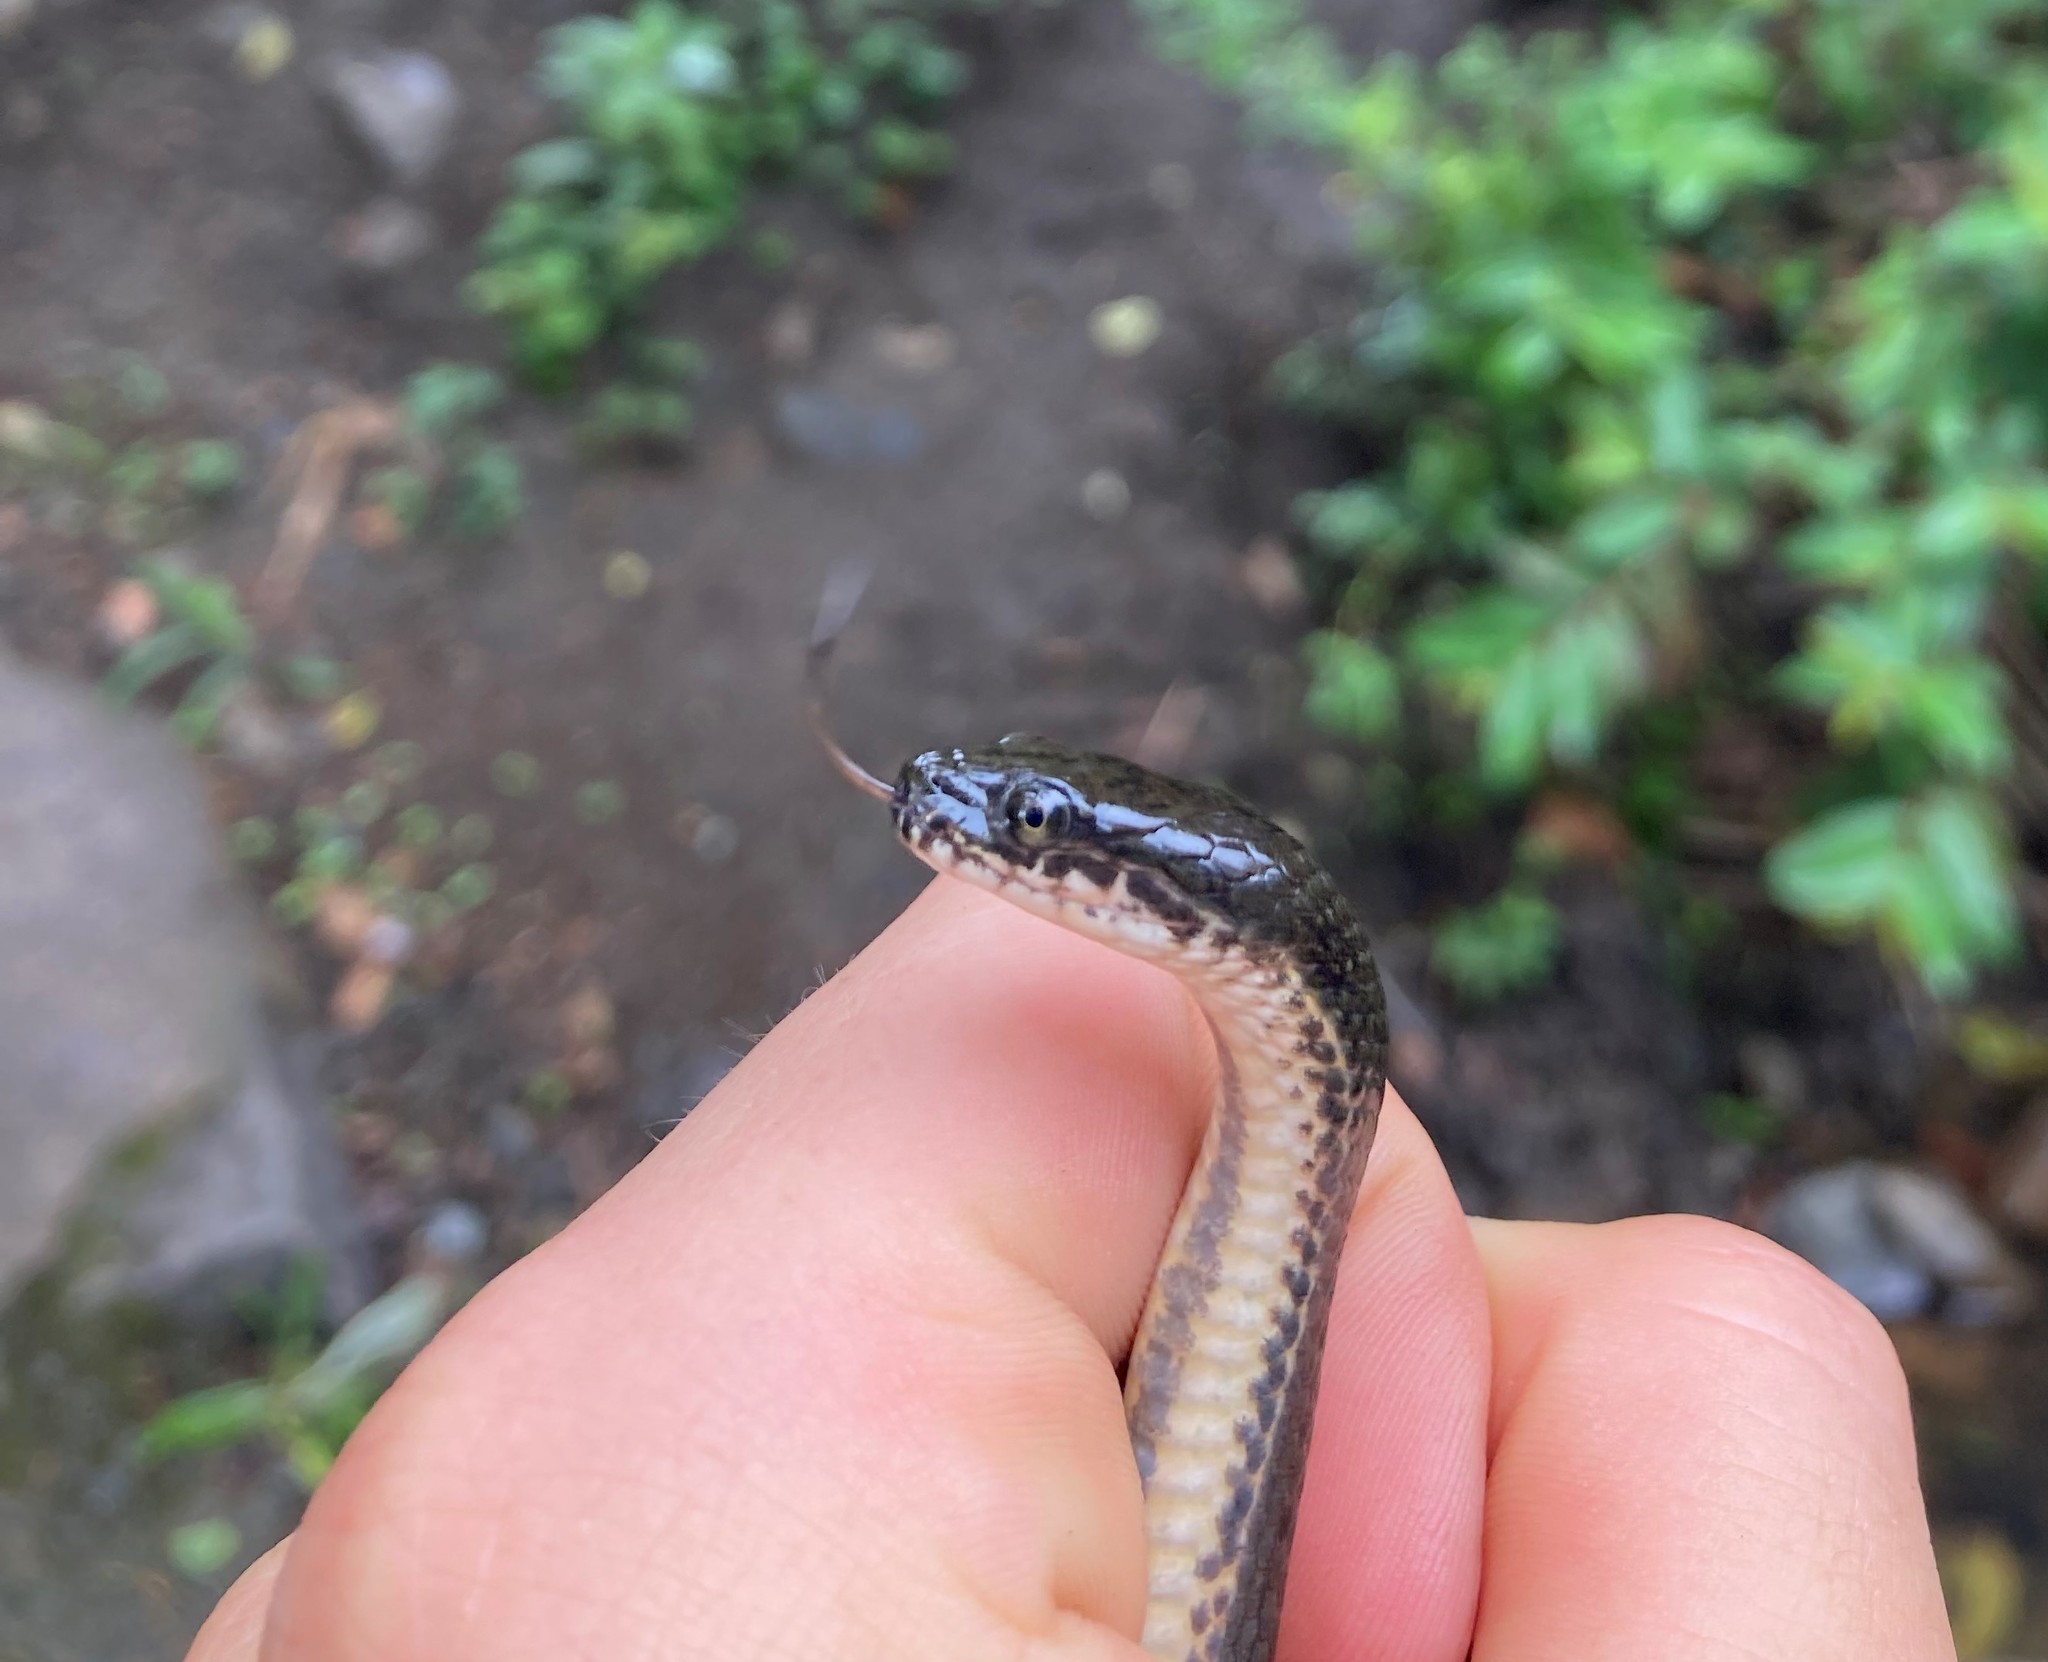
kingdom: Animalia
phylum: Chordata
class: Squamata
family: Lamprophiidae
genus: Lycodonomorphus
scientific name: Lycodonomorphus laevissimus
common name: Dusky-bellied water snake
